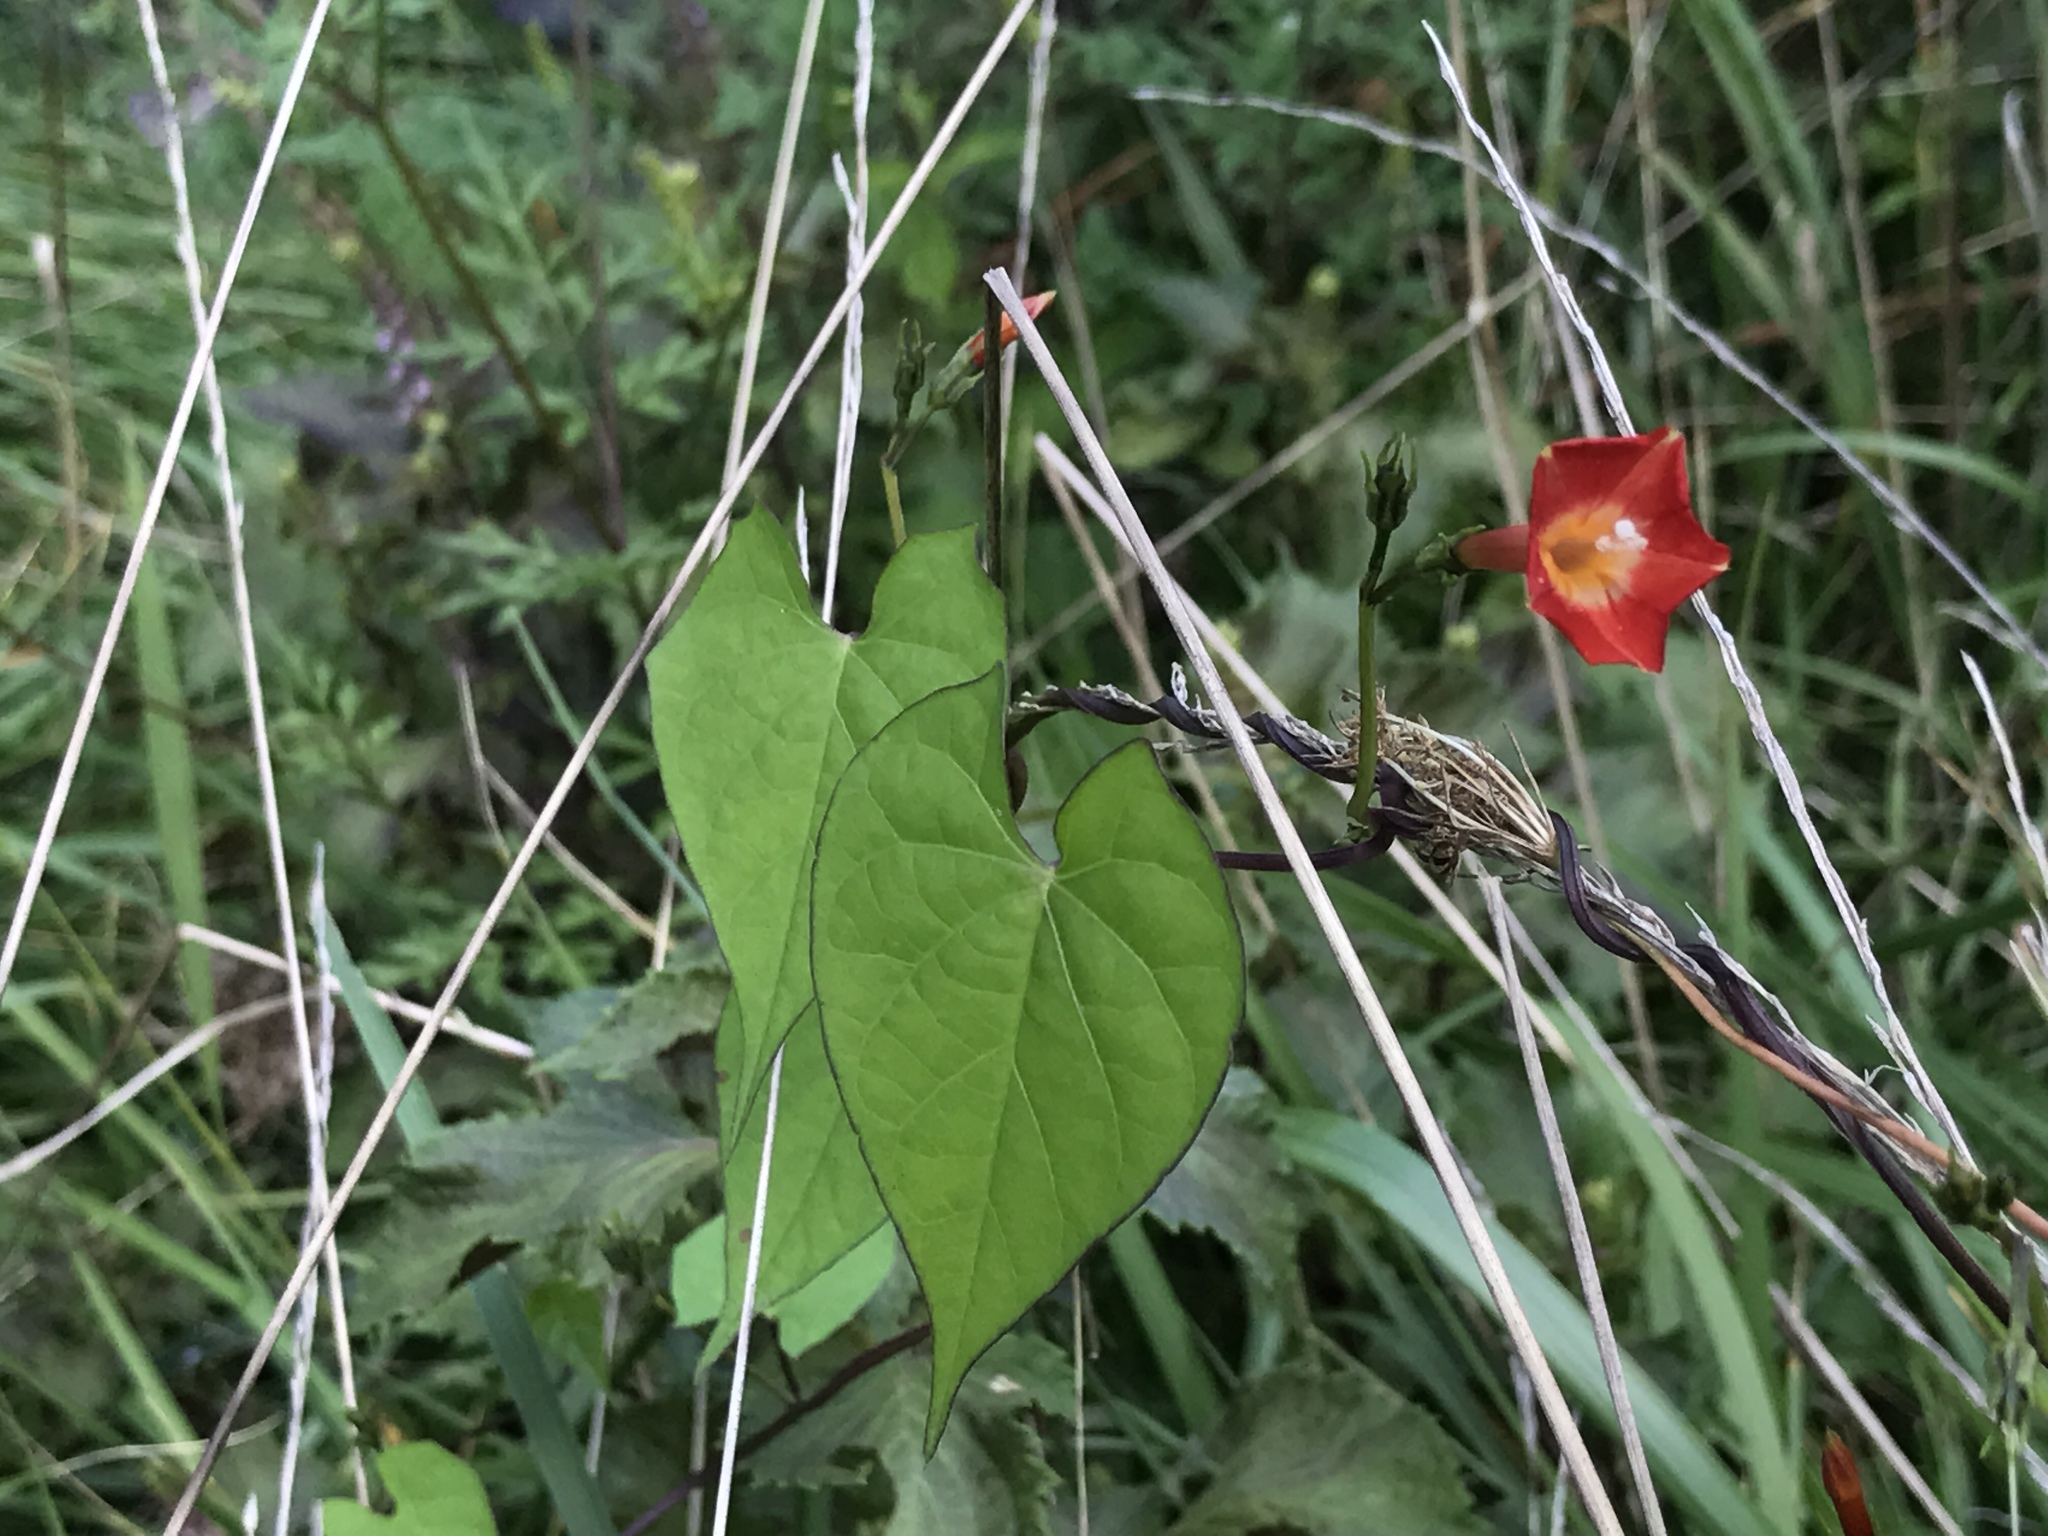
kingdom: Plantae
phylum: Tracheophyta
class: Magnoliopsida
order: Solanales
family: Convolvulaceae
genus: Ipomoea
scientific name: Ipomoea coccinea
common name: Red morning-glory
